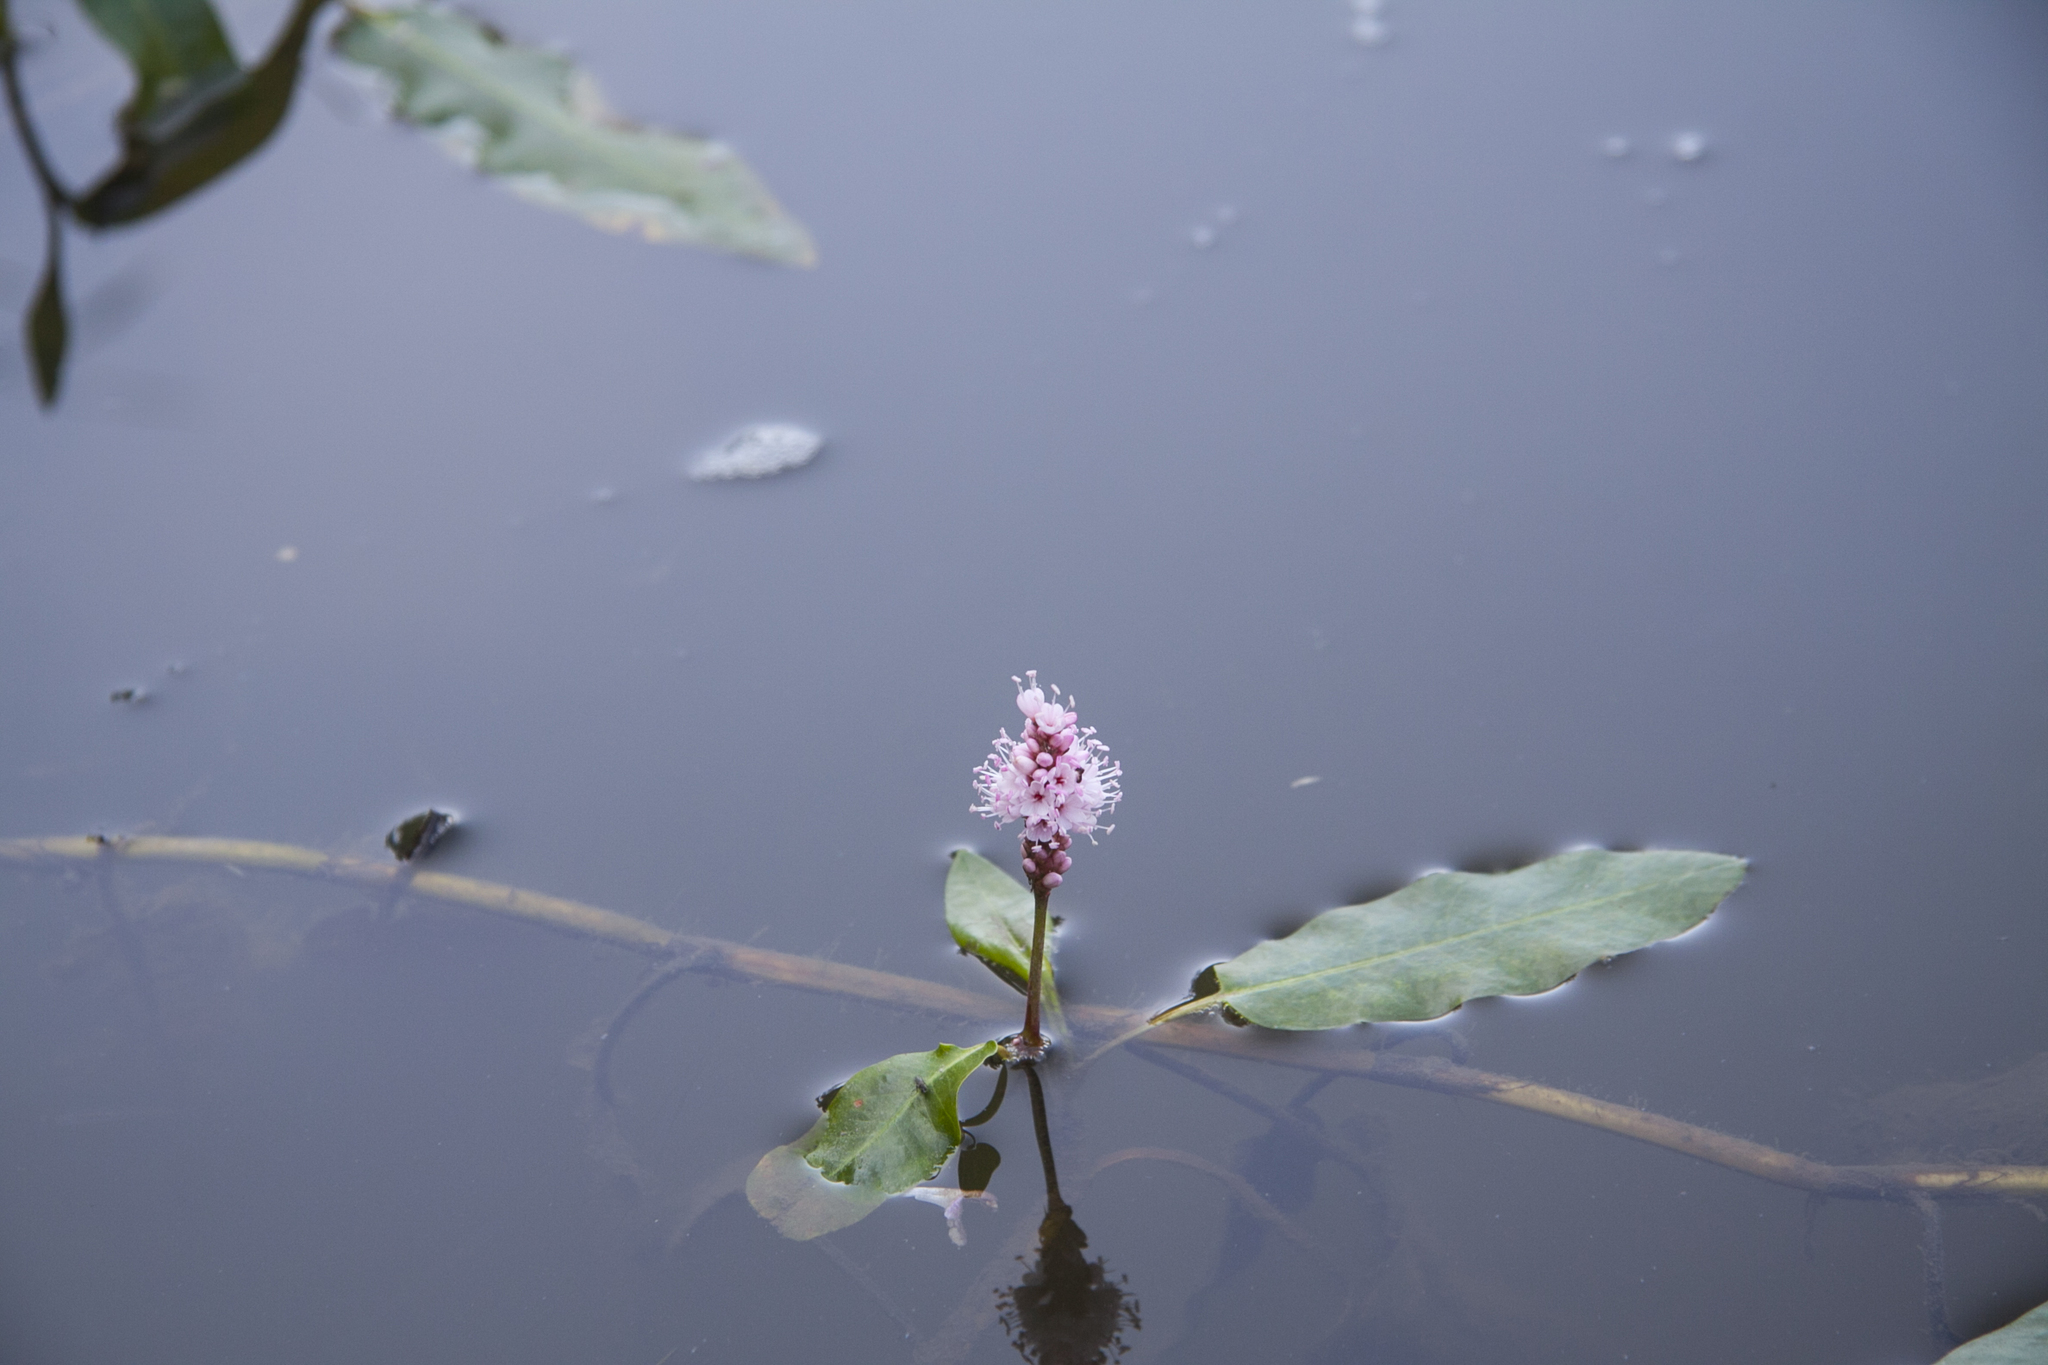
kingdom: Plantae
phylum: Tracheophyta
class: Magnoliopsida
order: Caryophyllales
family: Polygonaceae
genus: Persicaria
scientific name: Persicaria amphibia
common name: Amphibious bistort
